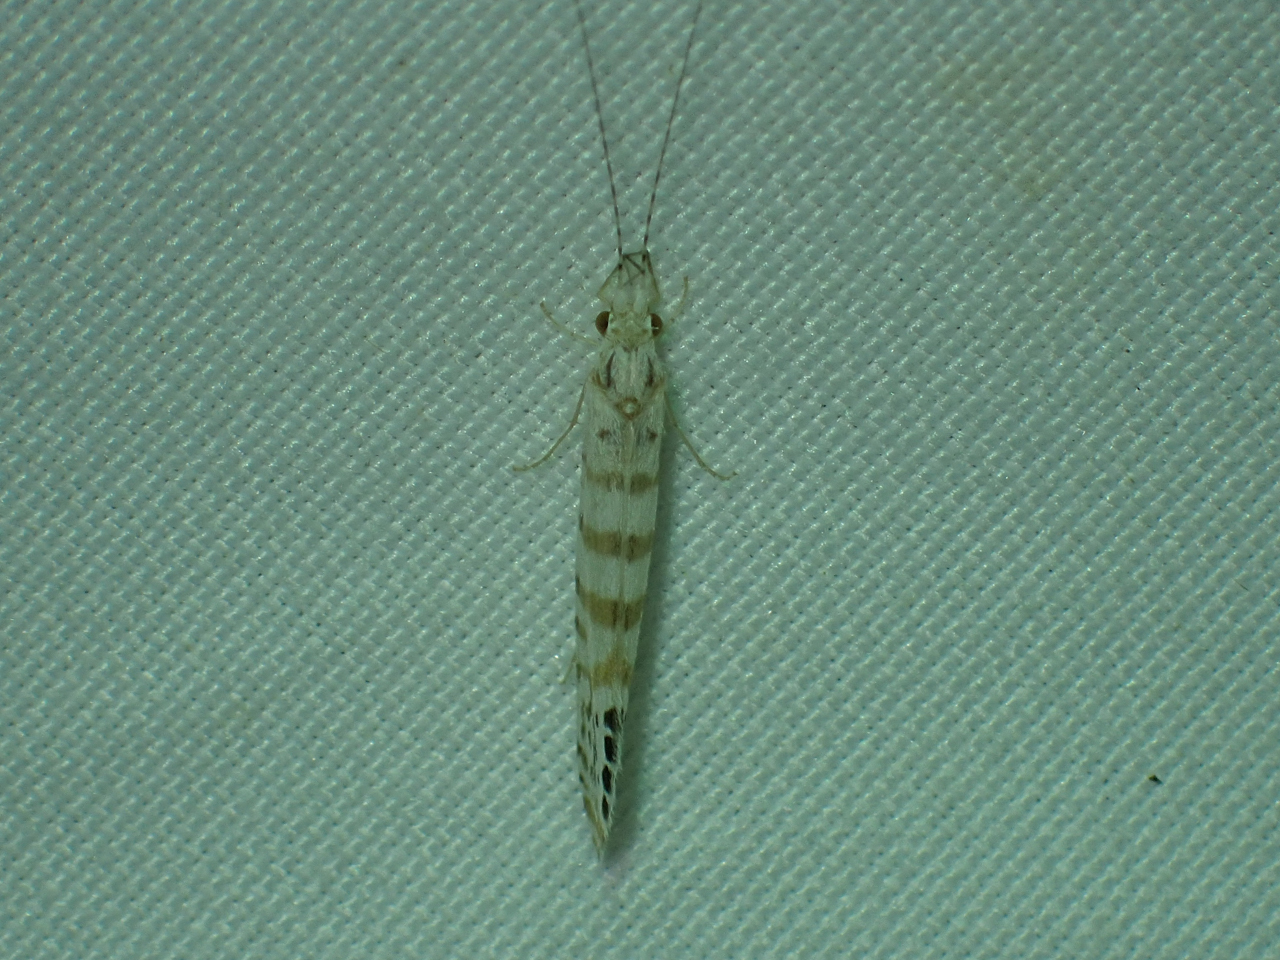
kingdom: Animalia
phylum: Arthropoda
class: Insecta
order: Trichoptera
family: Leptoceridae
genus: Nectopsyche
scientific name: Nectopsyche exquisita
